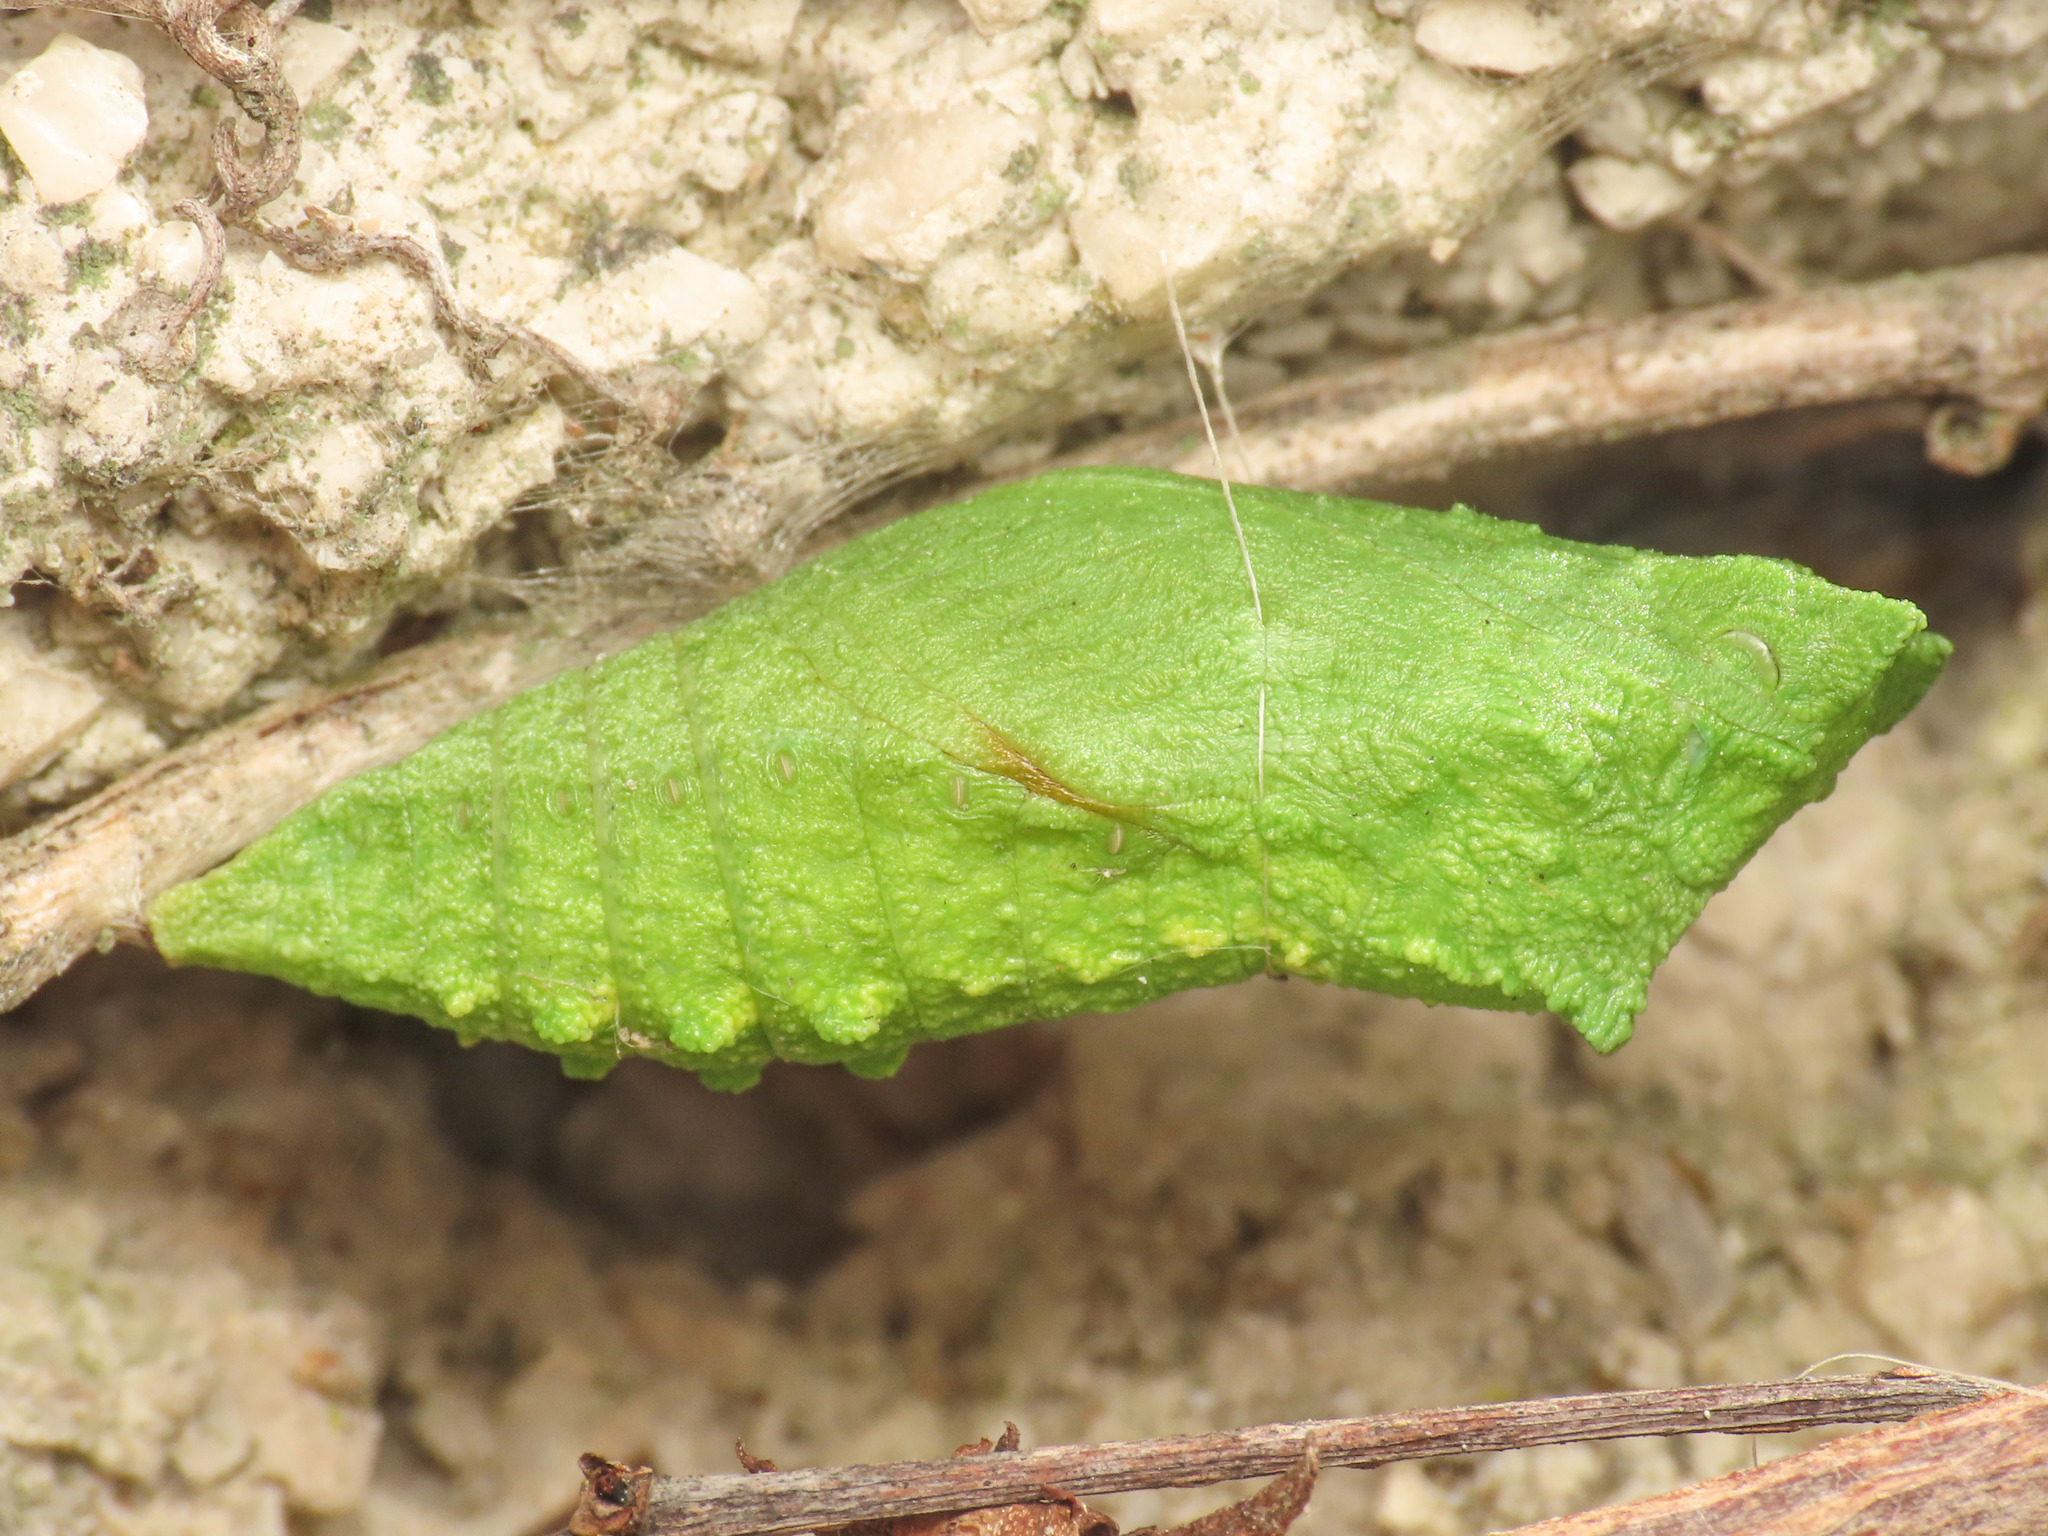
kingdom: Animalia
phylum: Arthropoda
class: Insecta
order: Lepidoptera
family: Papilionidae
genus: Papilio
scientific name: Papilio machaon
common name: Swallowtail
